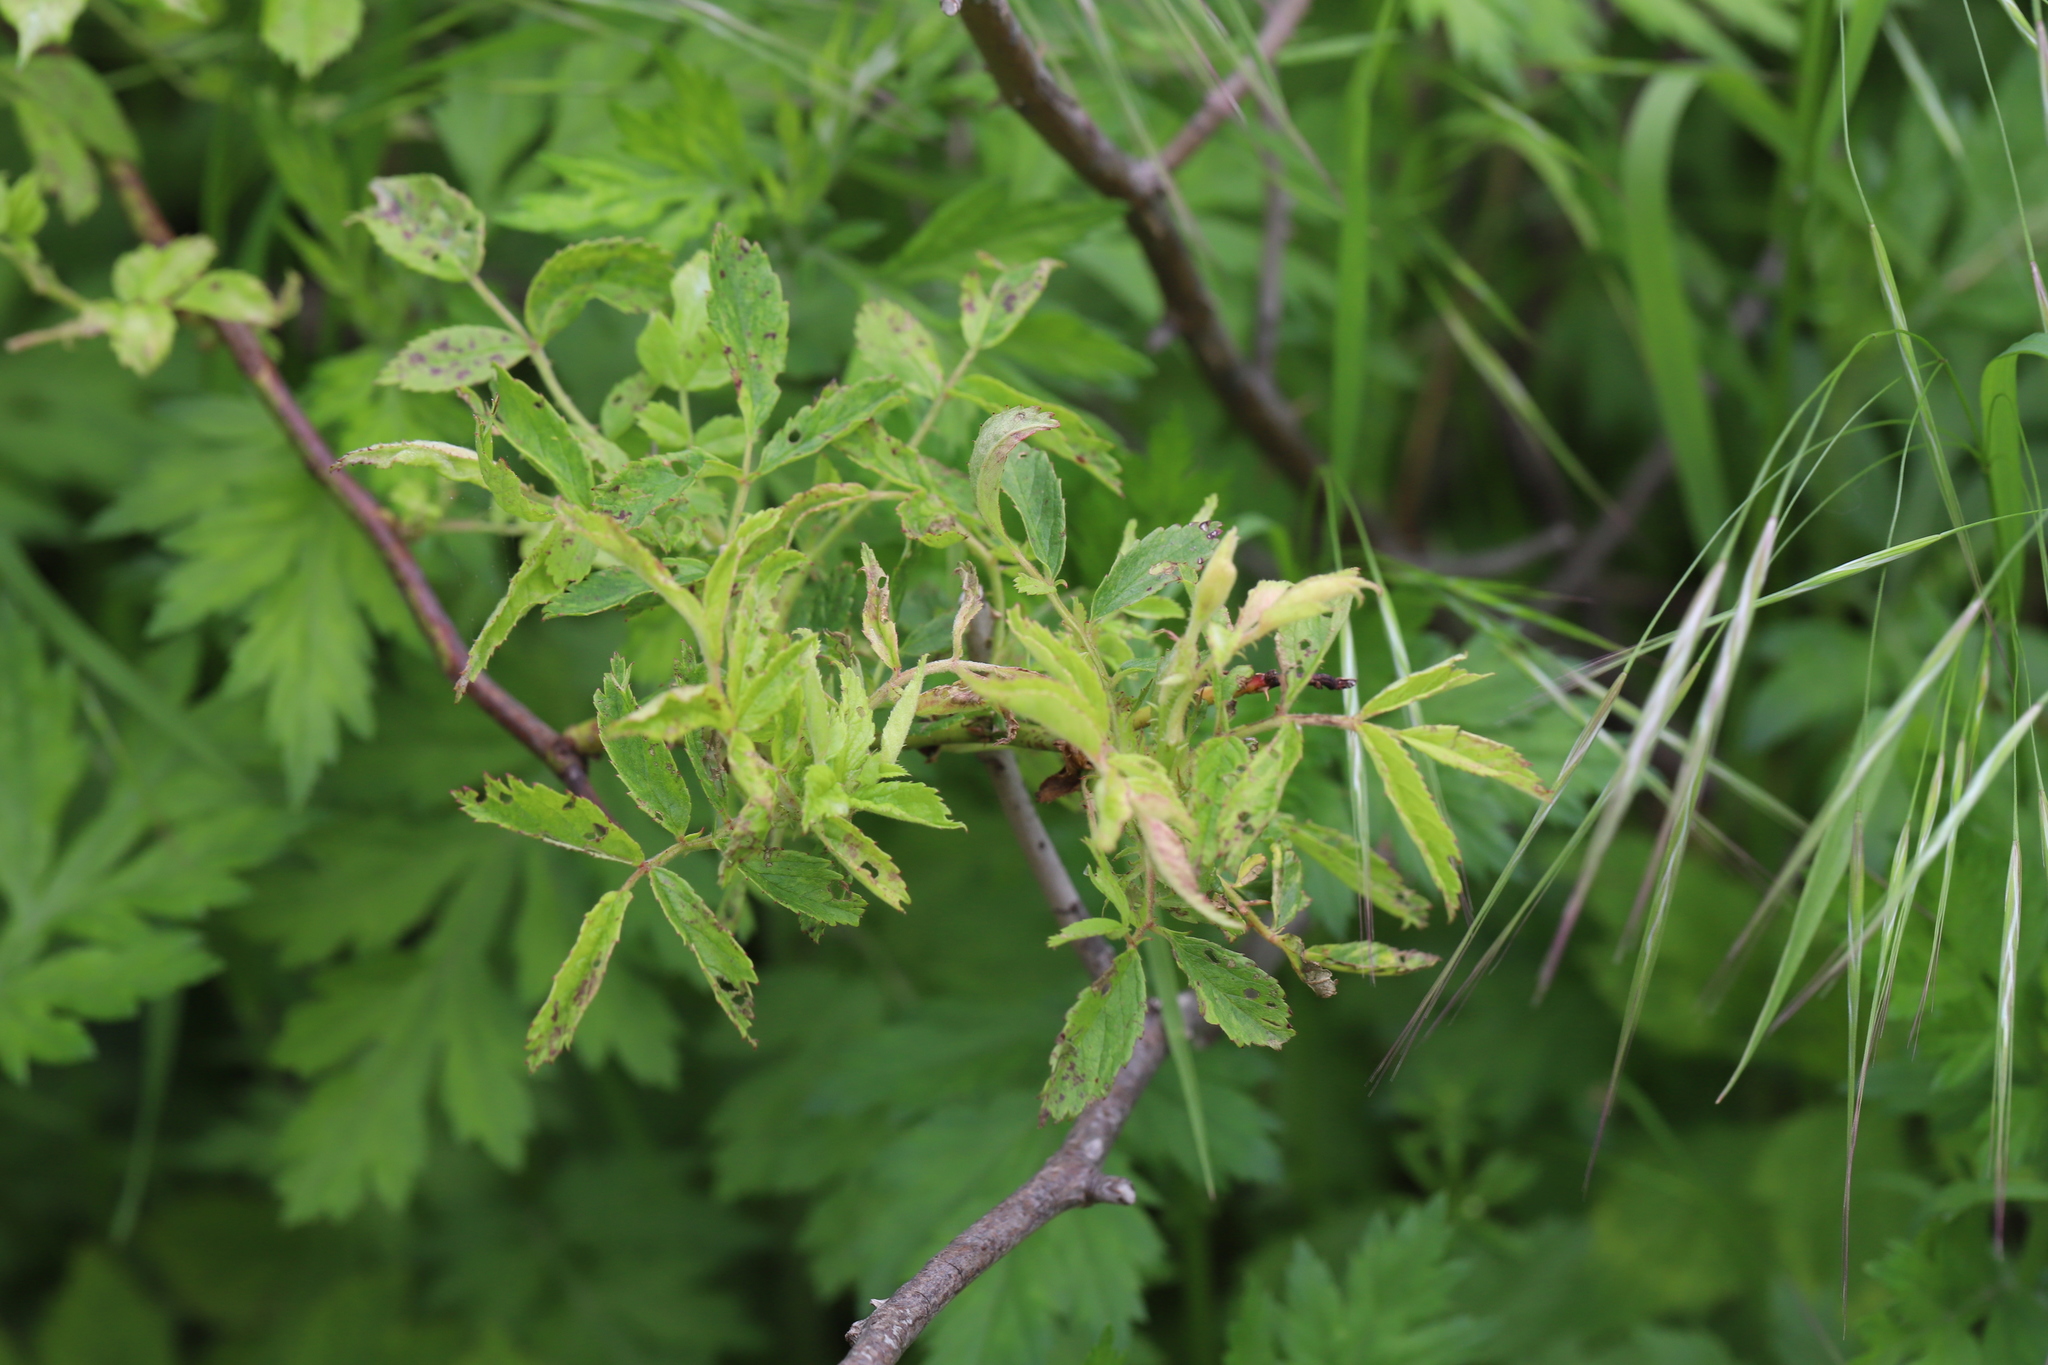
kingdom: Viruses
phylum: Negarnaviricota
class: Ellioviricetes
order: Bunyavirales
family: Fimoviridae
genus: Emaravirus
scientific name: Emaravirus rosae
